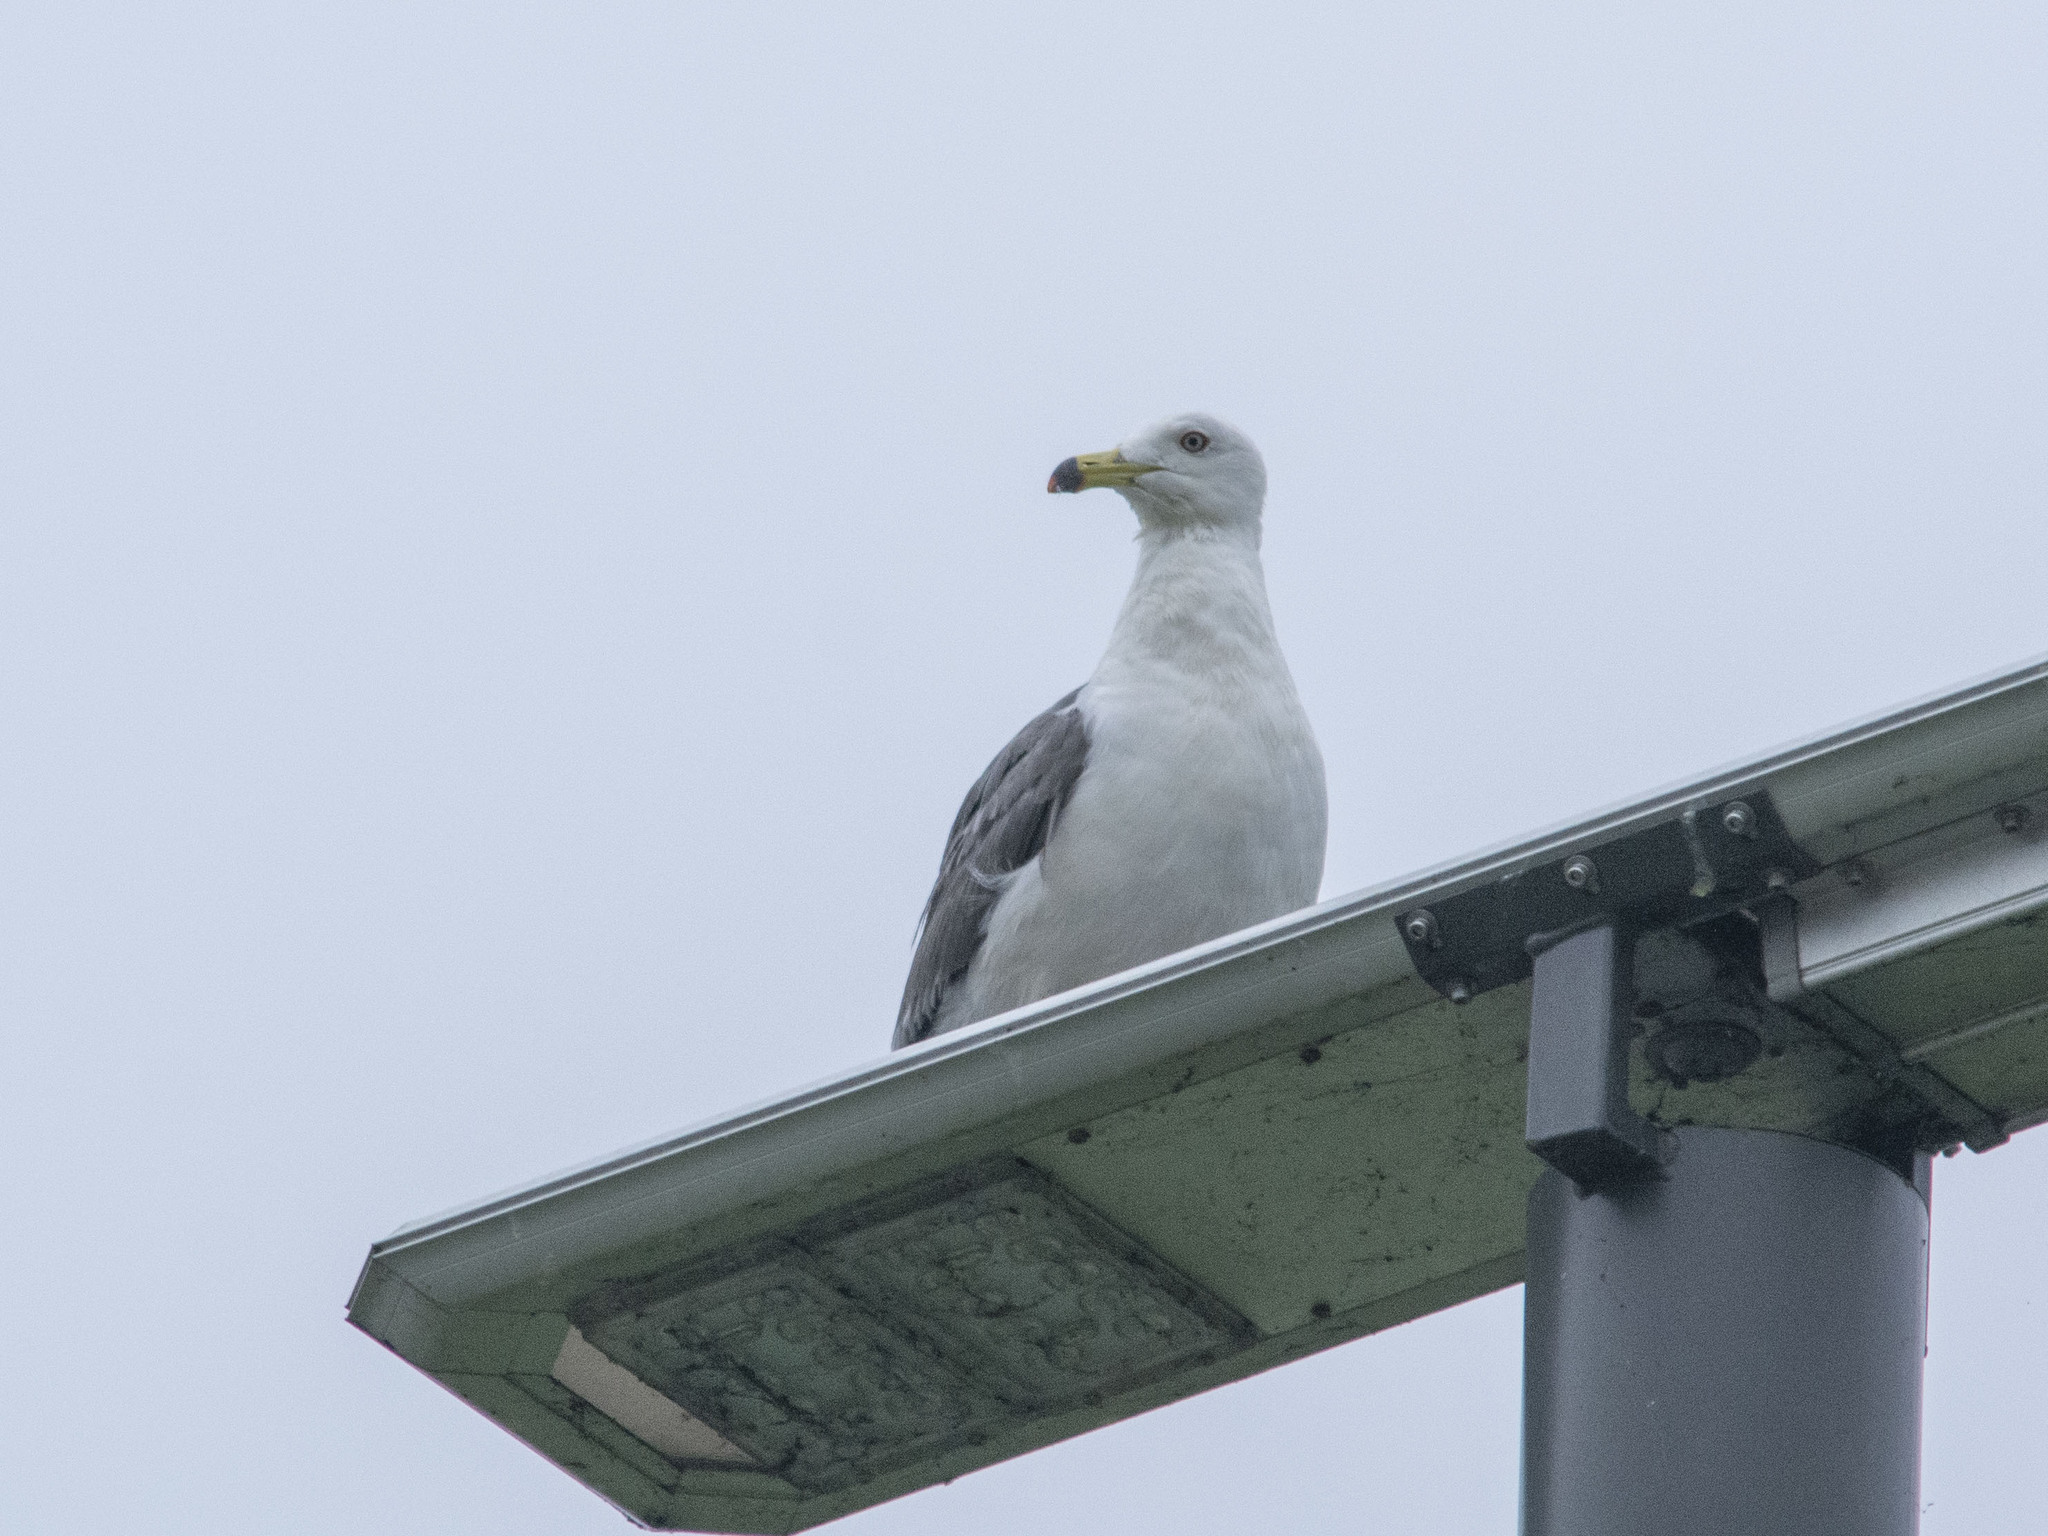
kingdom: Animalia
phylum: Chordata
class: Aves
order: Charadriiformes
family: Laridae
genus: Larus
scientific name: Larus crassirostris
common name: Black-tailed gull
